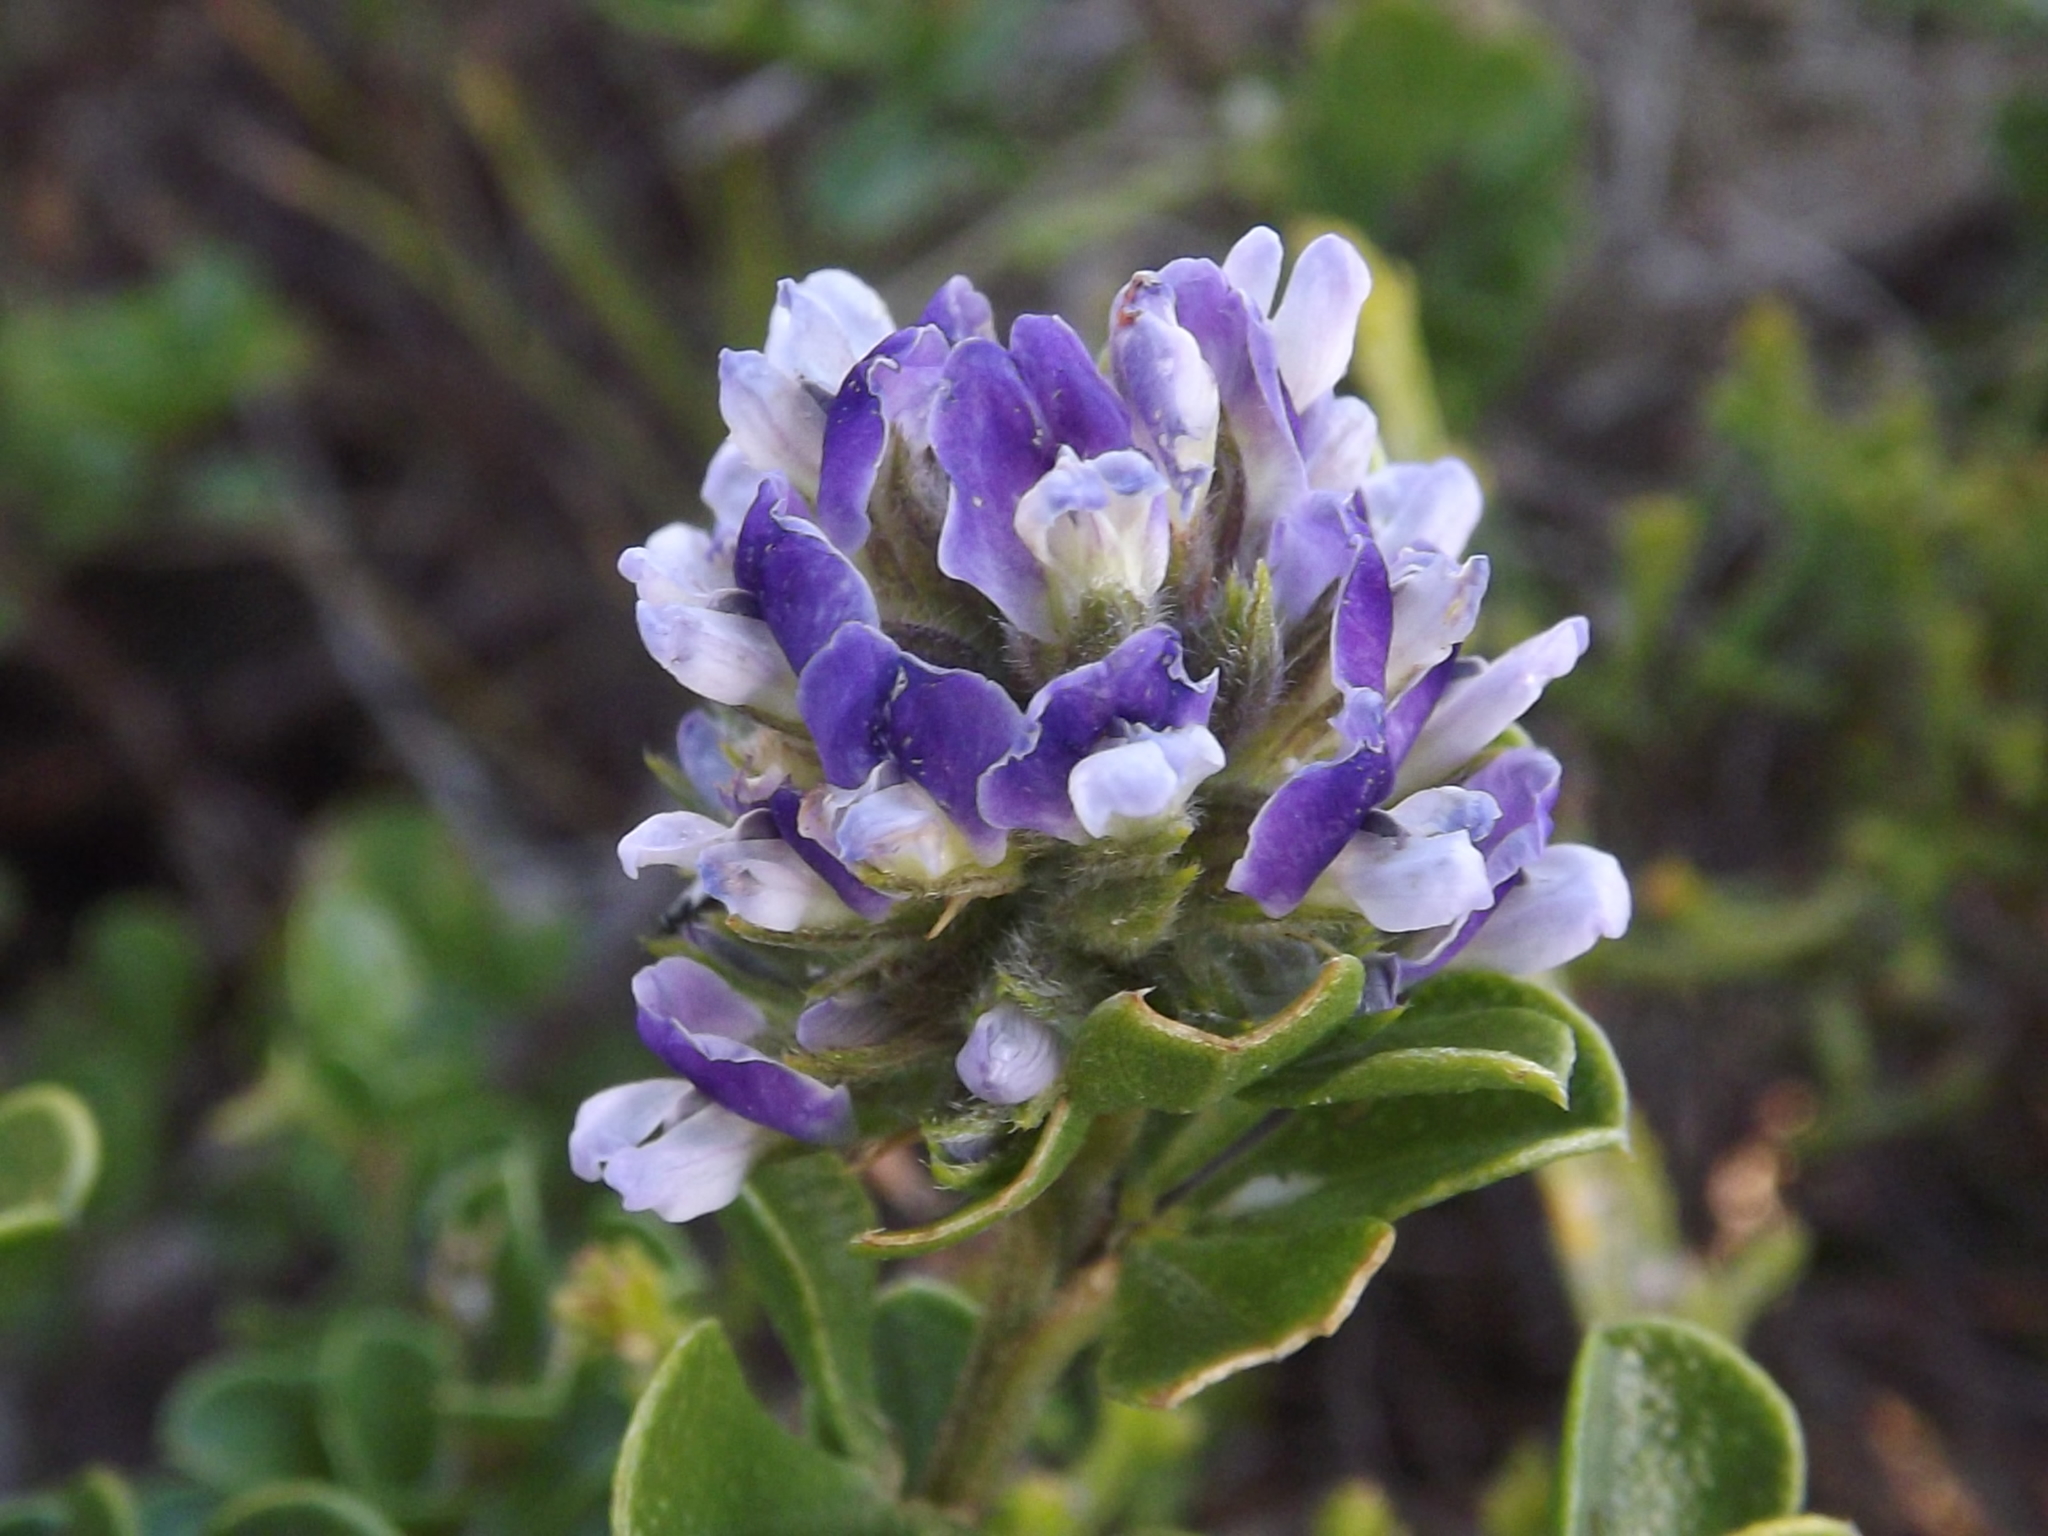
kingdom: Plantae
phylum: Tracheophyta
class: Magnoliopsida
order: Fabales
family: Fabaceae
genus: Psoralea
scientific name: Psoralea bracteolata
